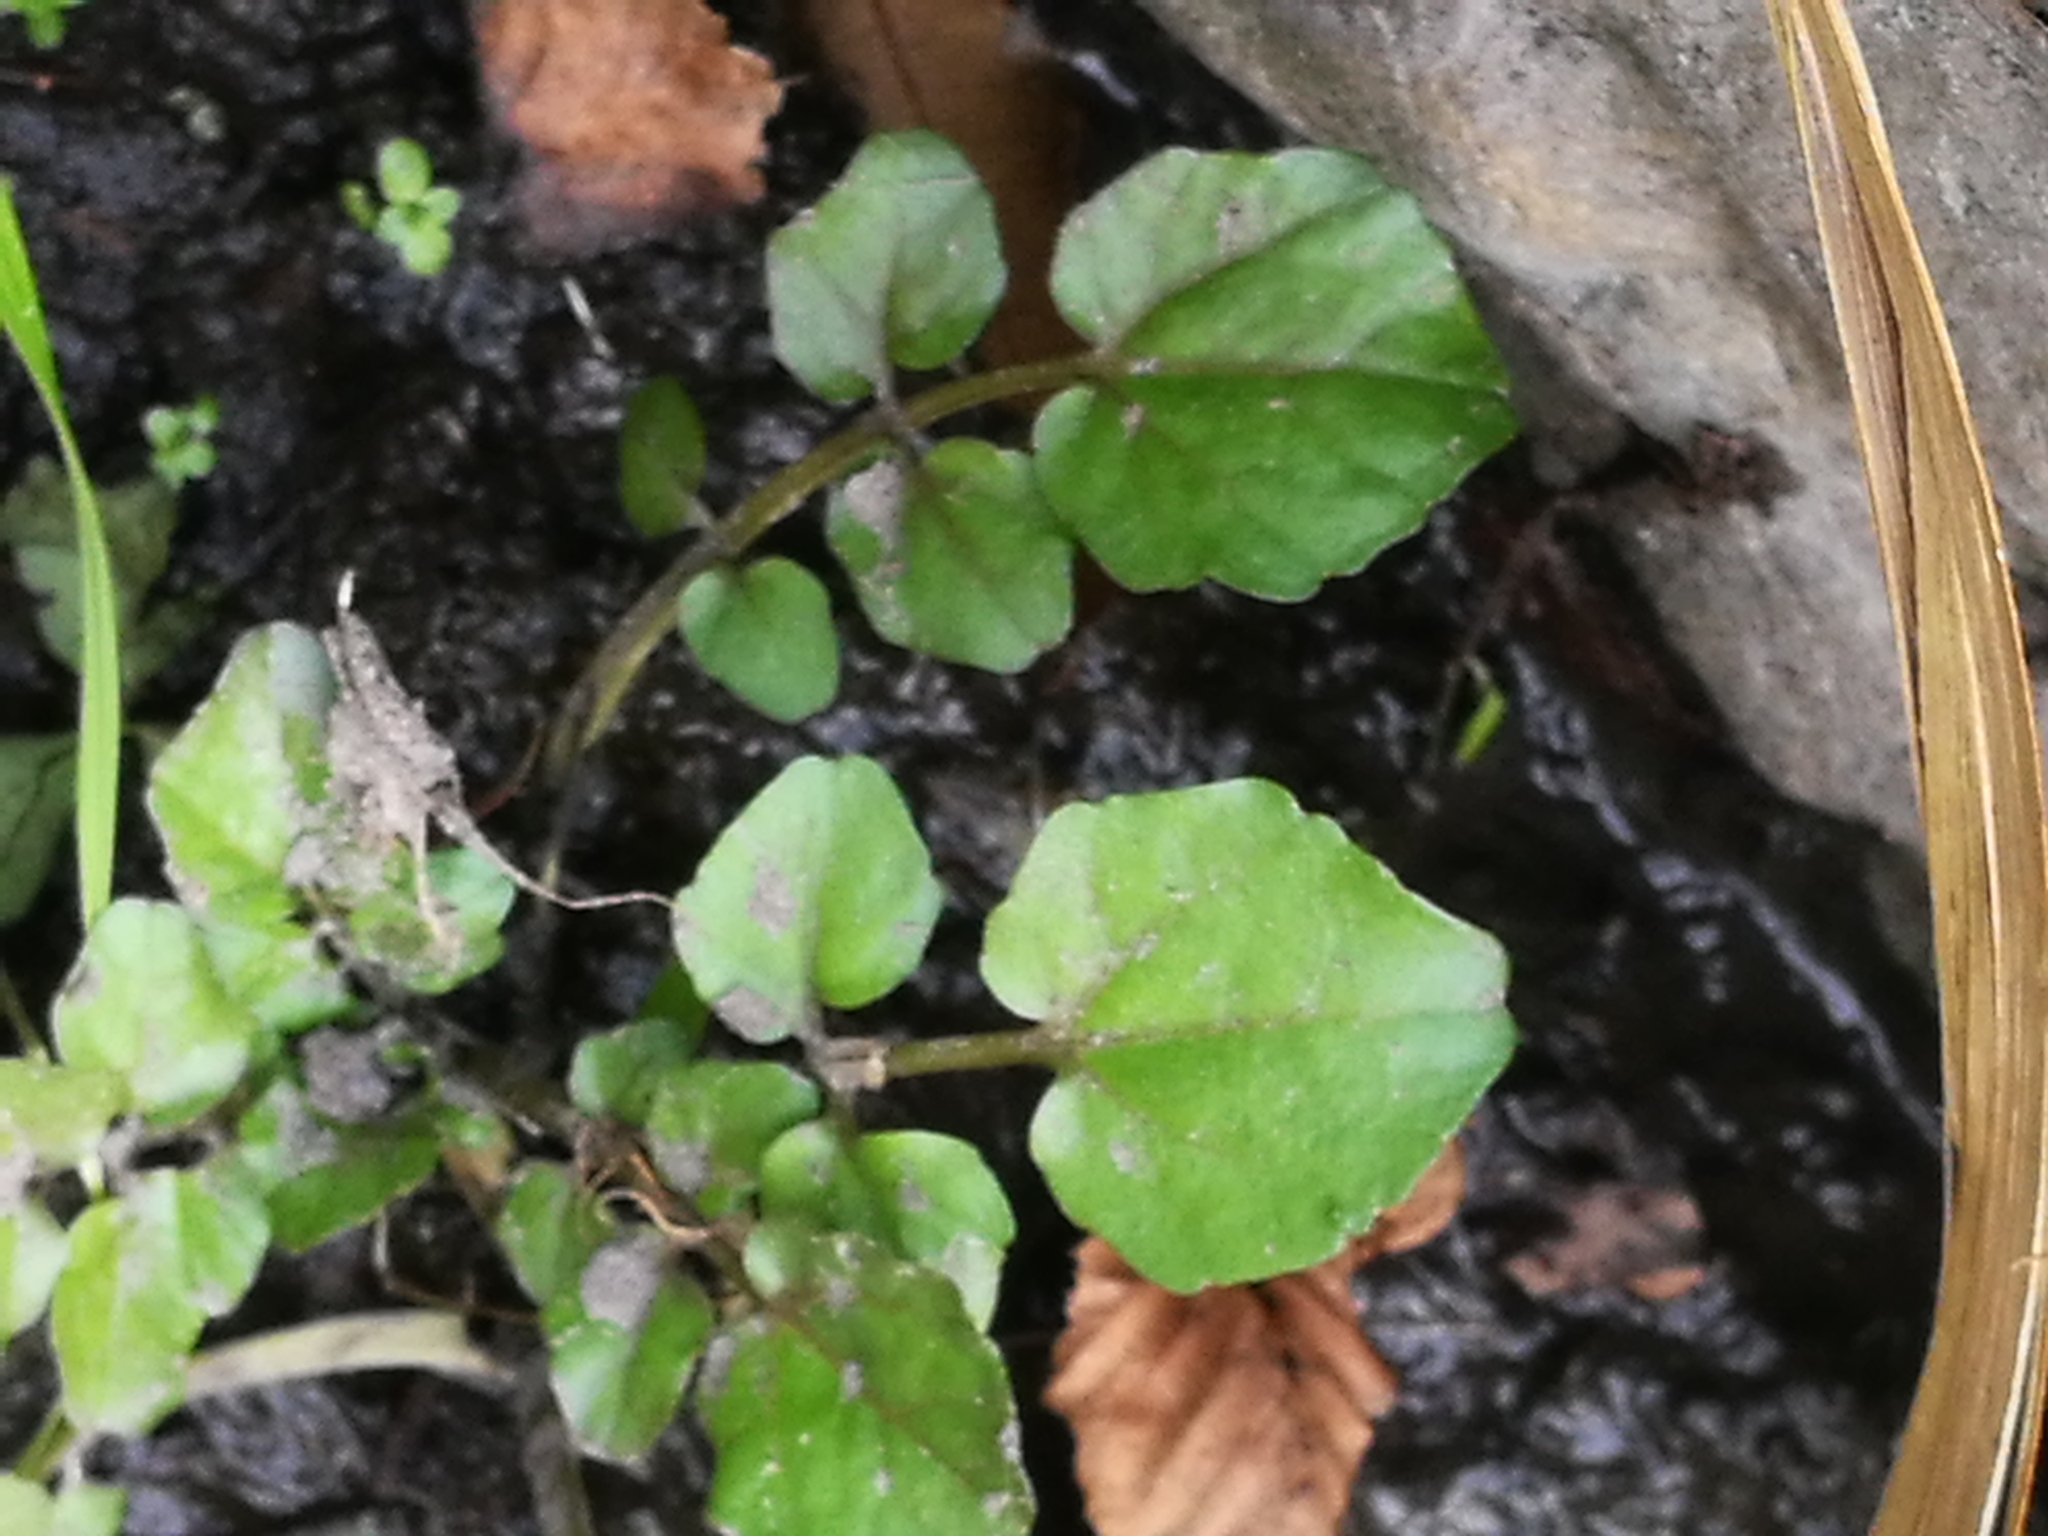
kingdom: Plantae
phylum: Tracheophyta
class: Magnoliopsida
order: Brassicales
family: Brassicaceae
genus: Nasturtium
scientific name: Nasturtium officinale
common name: Watercress
